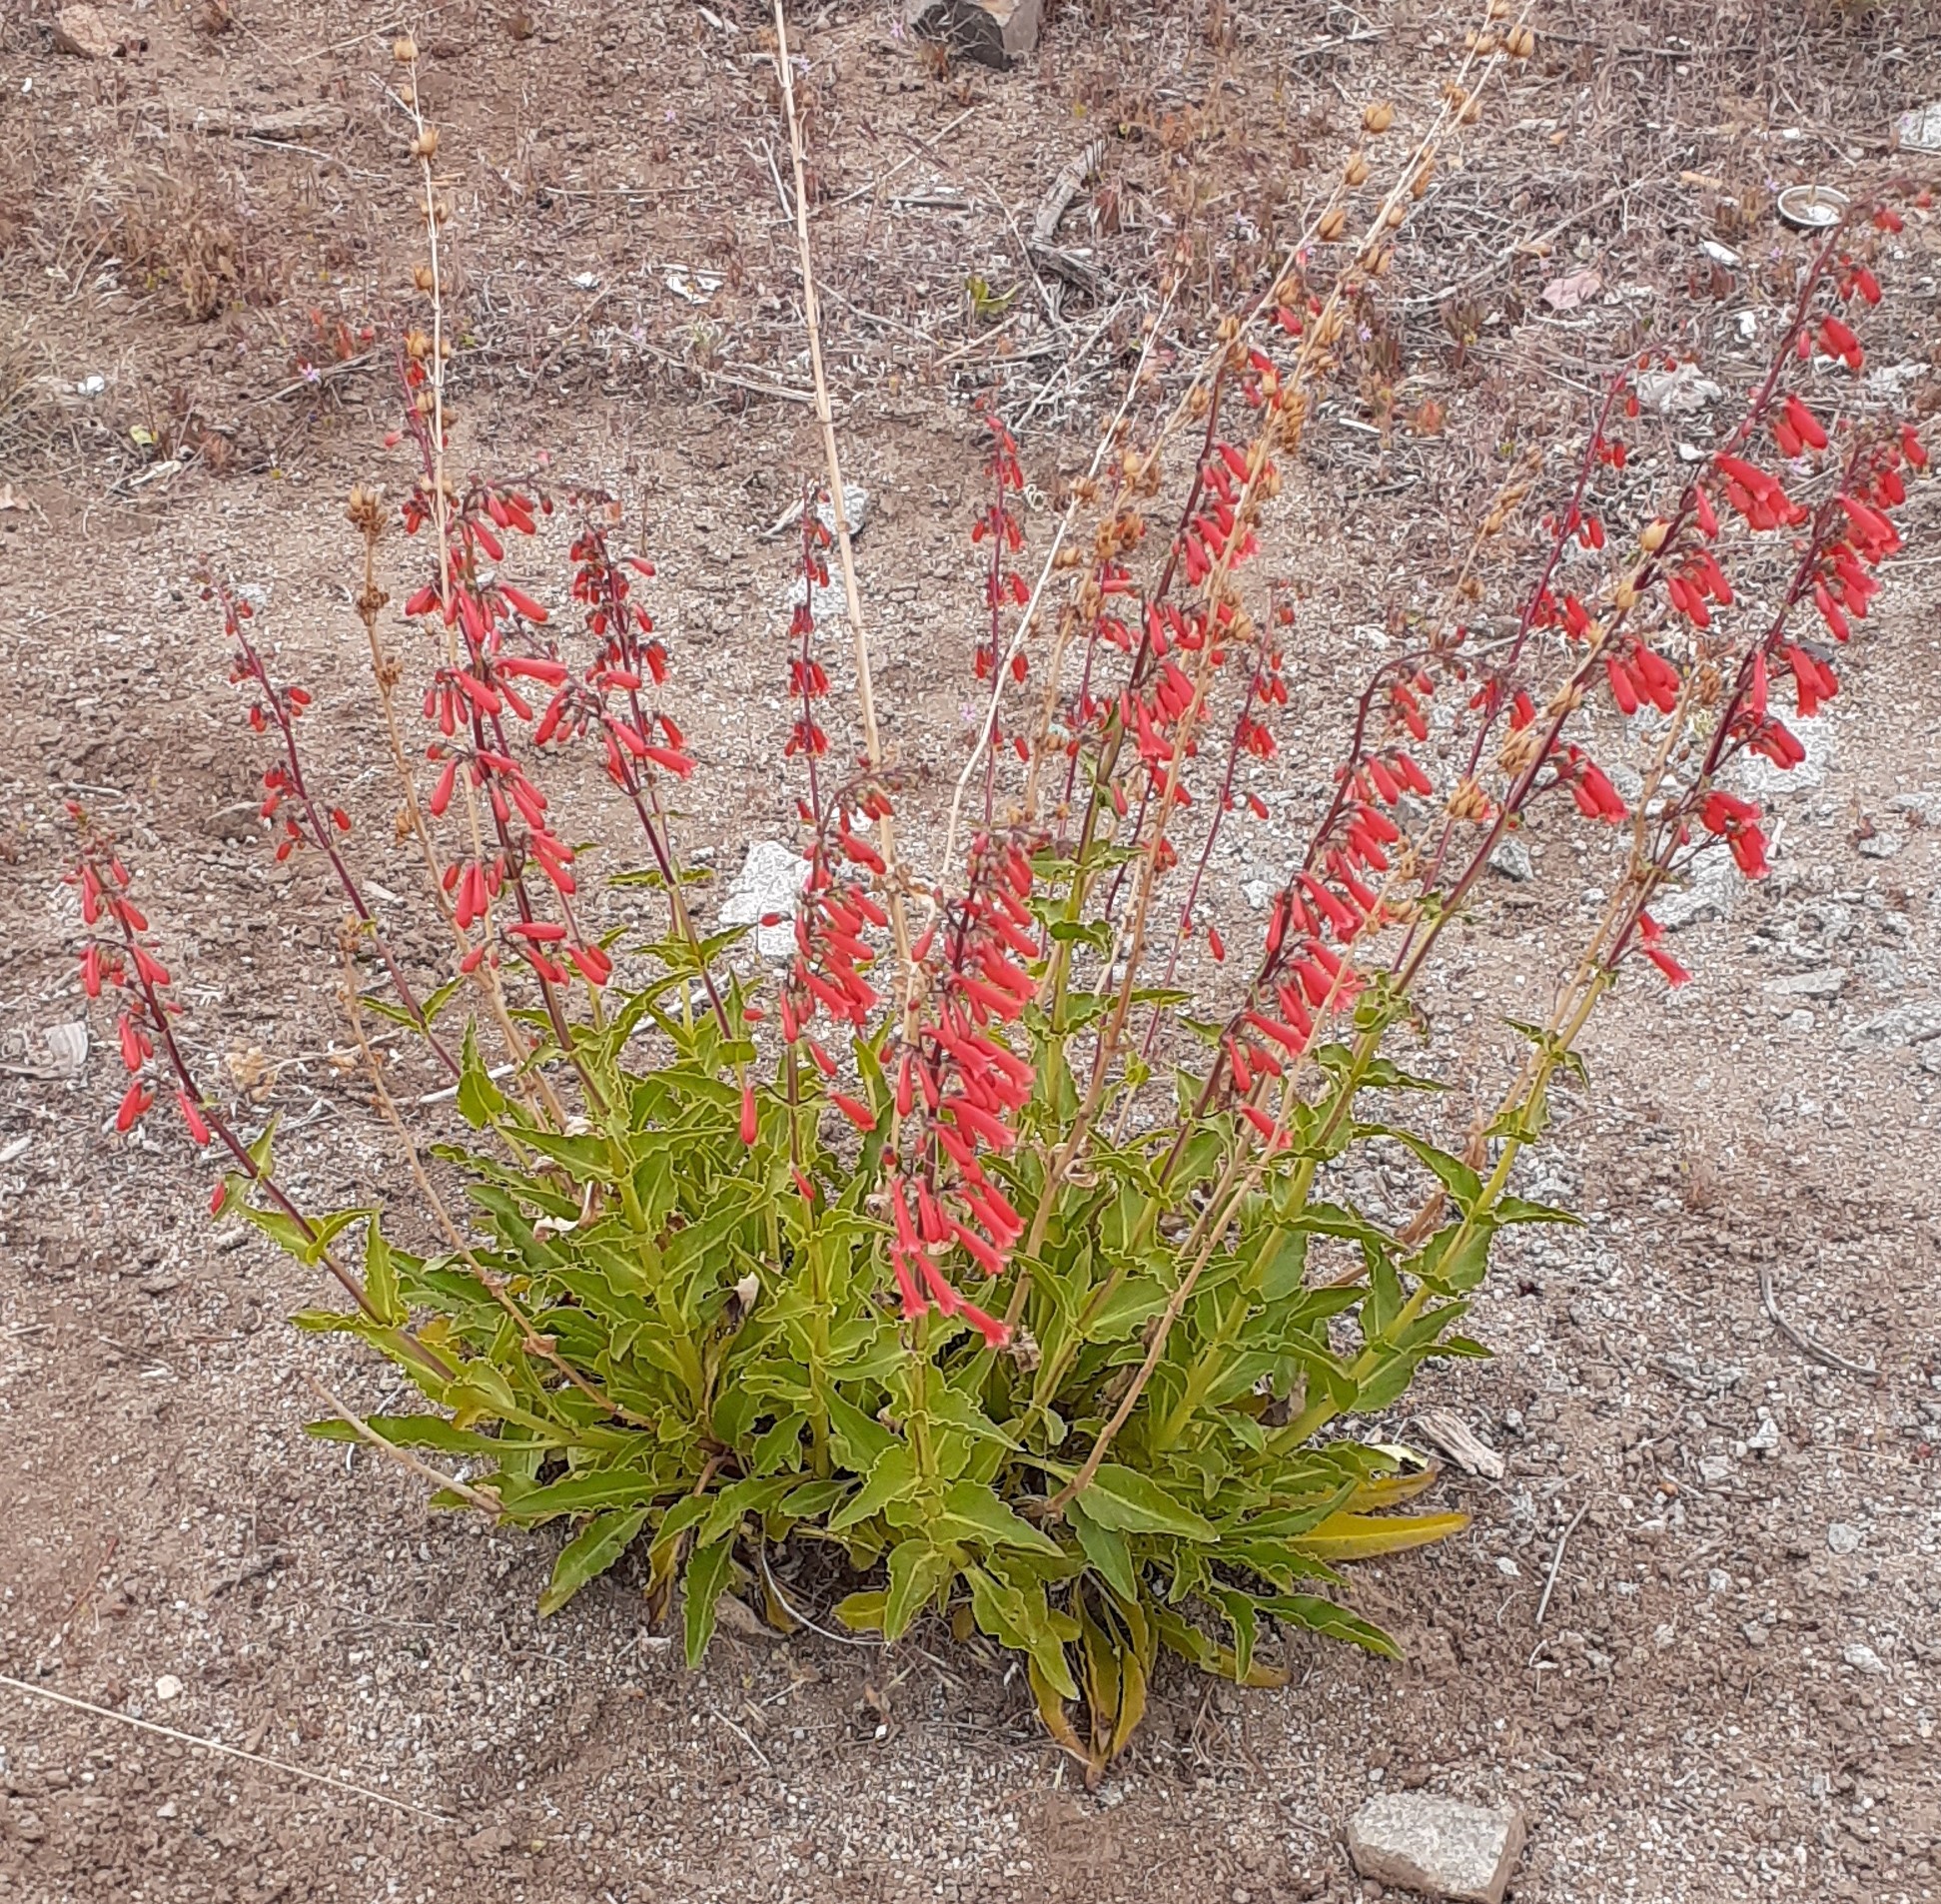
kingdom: Plantae
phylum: Tracheophyta
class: Magnoliopsida
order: Lamiales
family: Plantaginaceae
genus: Penstemon
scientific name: Penstemon eatonii
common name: Eaton's penstemon
